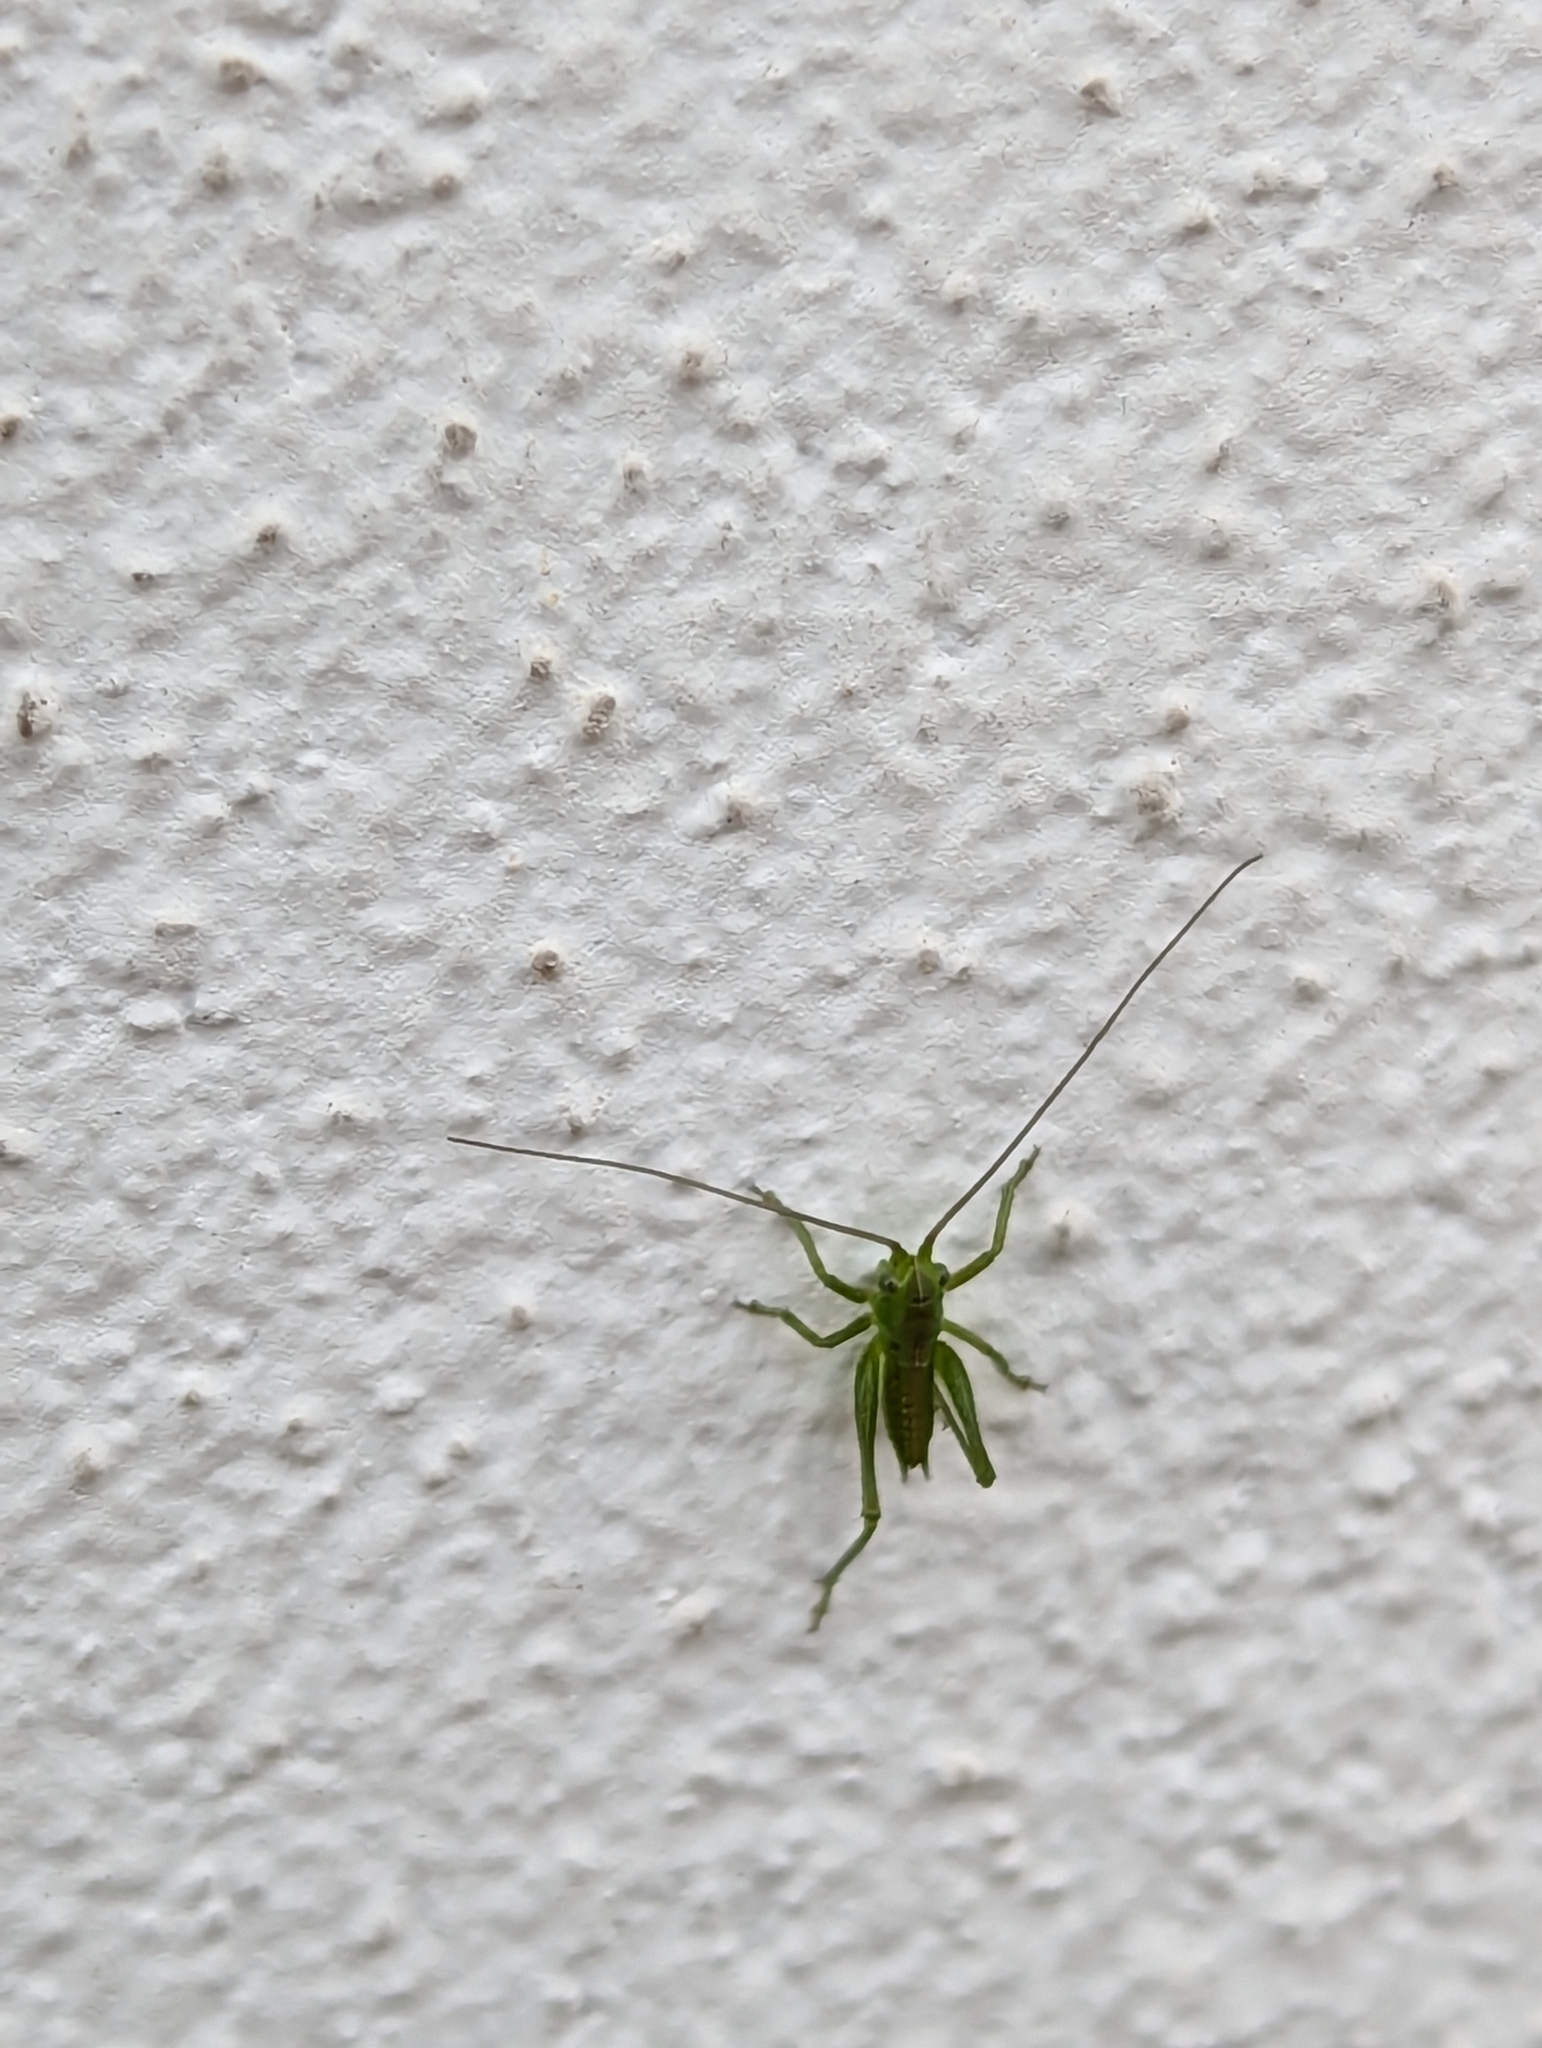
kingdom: Animalia
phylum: Arthropoda
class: Insecta
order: Orthoptera
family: Tettigoniidae
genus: Tettigonia
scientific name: Tettigonia viridissima
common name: Great green bush-cricket
